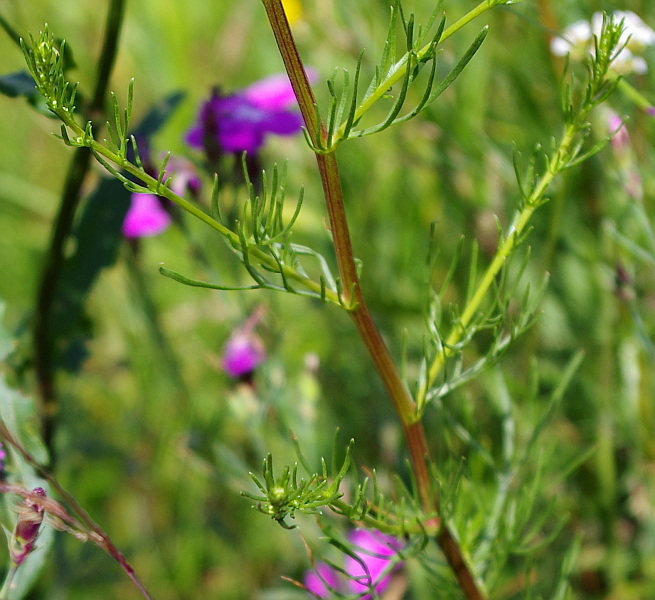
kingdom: Plantae
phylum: Tracheophyta
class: Magnoliopsida
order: Asterales
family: Asteraceae
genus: Tripleurospermum
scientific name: Tripleurospermum inodorum
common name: Scentless mayweed
